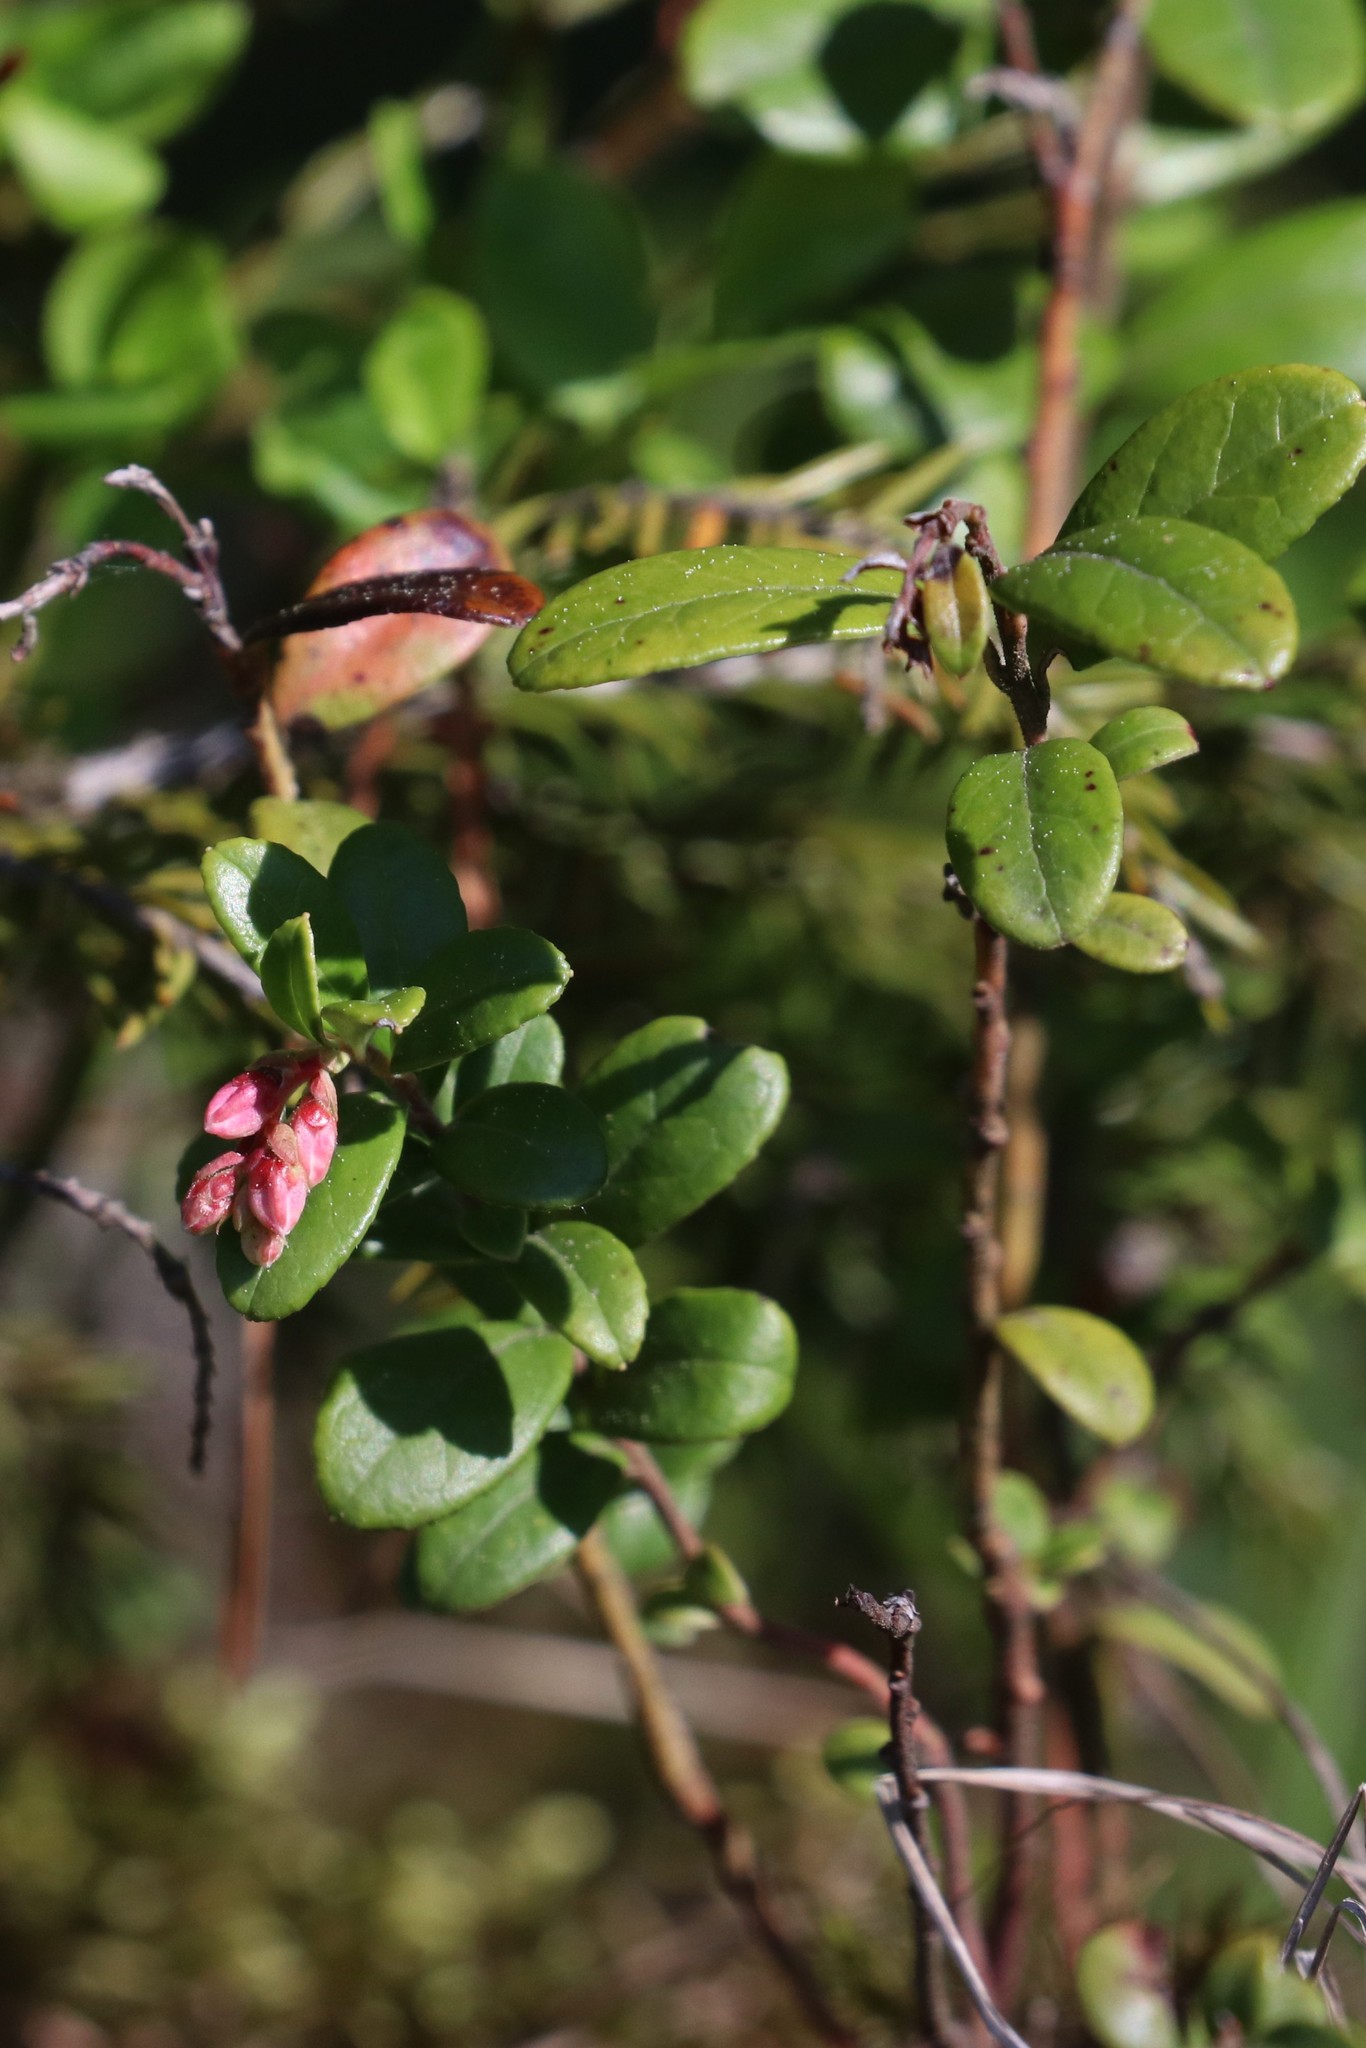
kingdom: Plantae
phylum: Tracheophyta
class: Magnoliopsida
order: Ericales
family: Ericaceae
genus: Vaccinium
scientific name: Vaccinium vitis-idaea
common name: Cowberry
